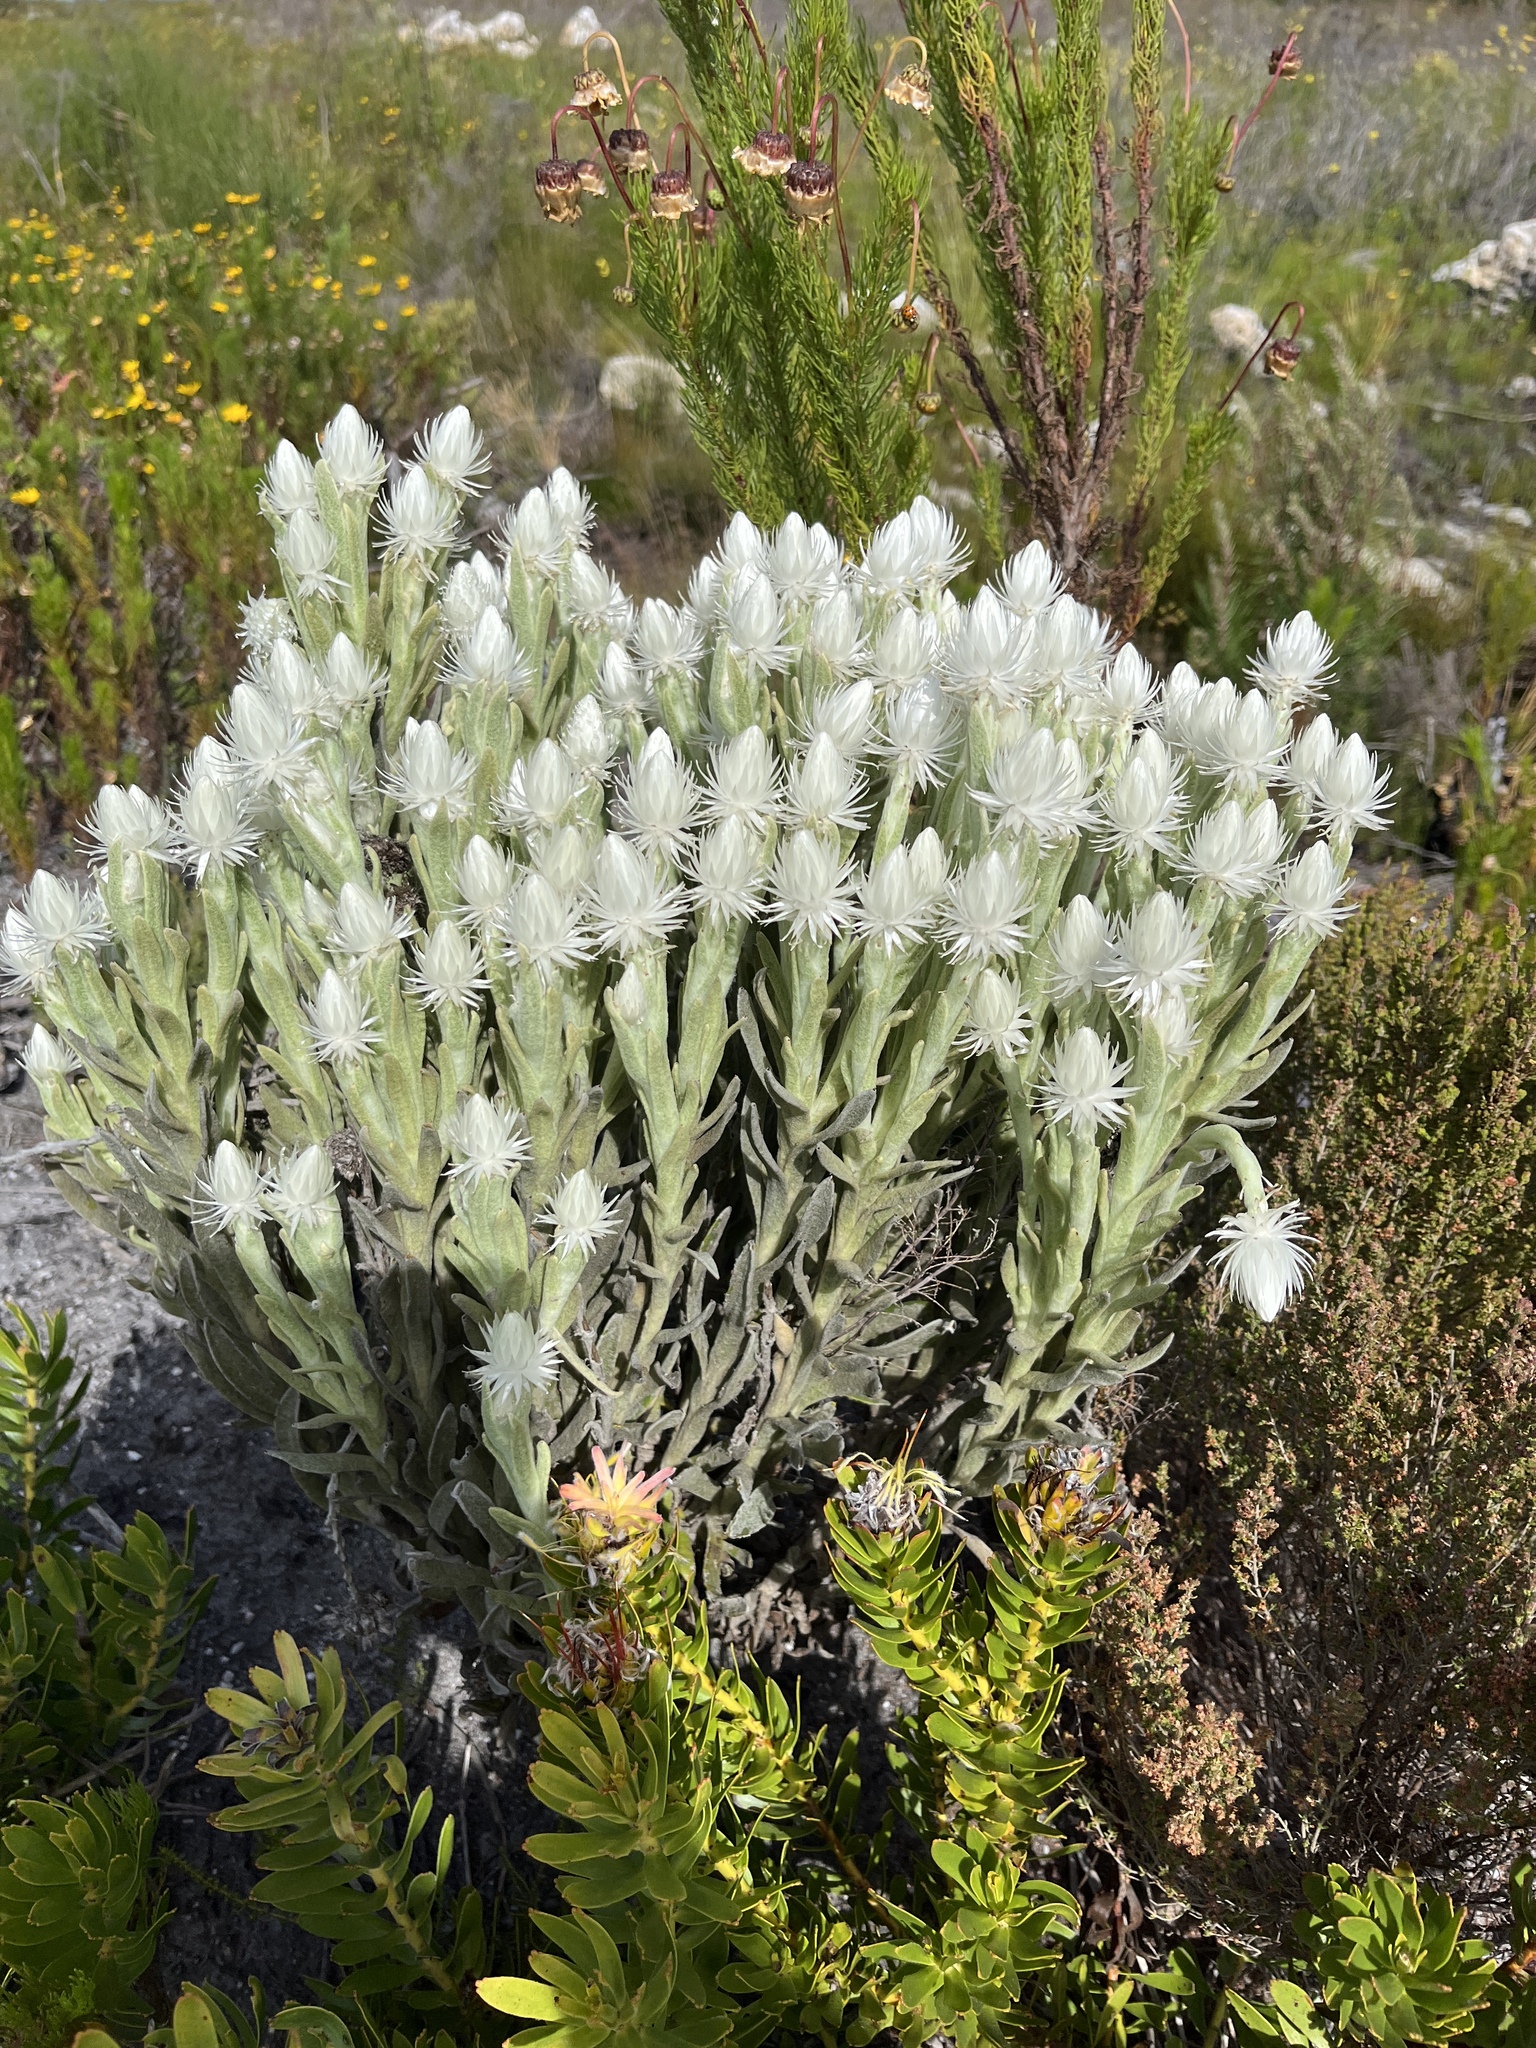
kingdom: Plantae
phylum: Tracheophyta
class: Magnoliopsida
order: Asterales
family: Asteraceae
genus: Syncarpha
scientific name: Syncarpha vestita
